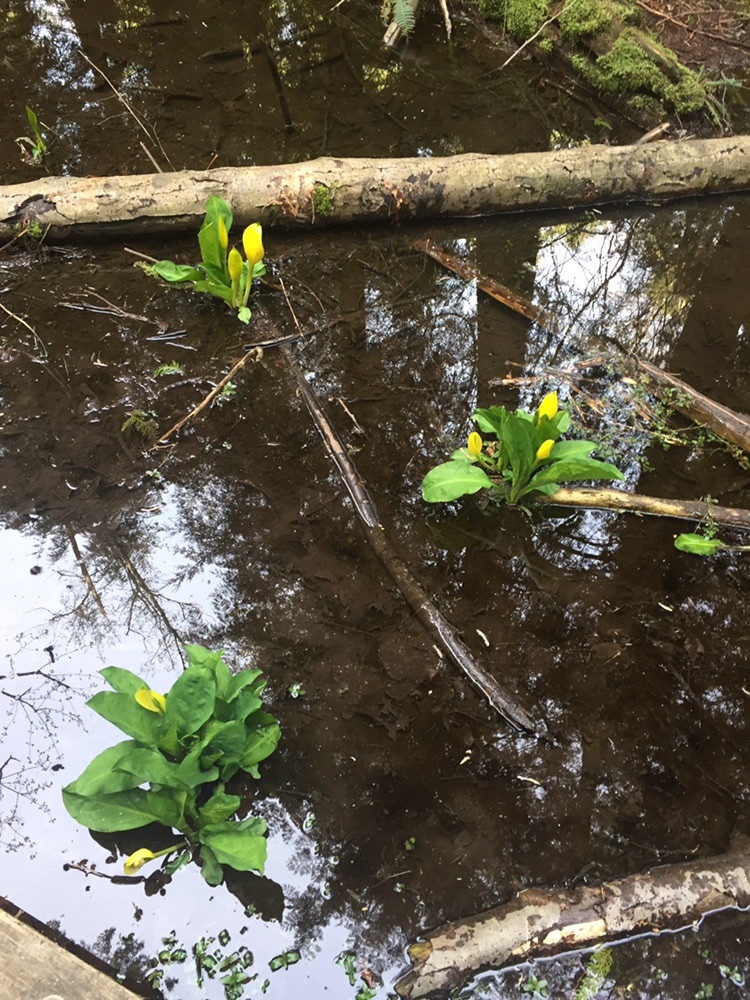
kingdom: Plantae
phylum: Tracheophyta
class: Liliopsida
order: Alismatales
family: Araceae
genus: Lysichiton
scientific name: Lysichiton americanus
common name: American skunk cabbage
